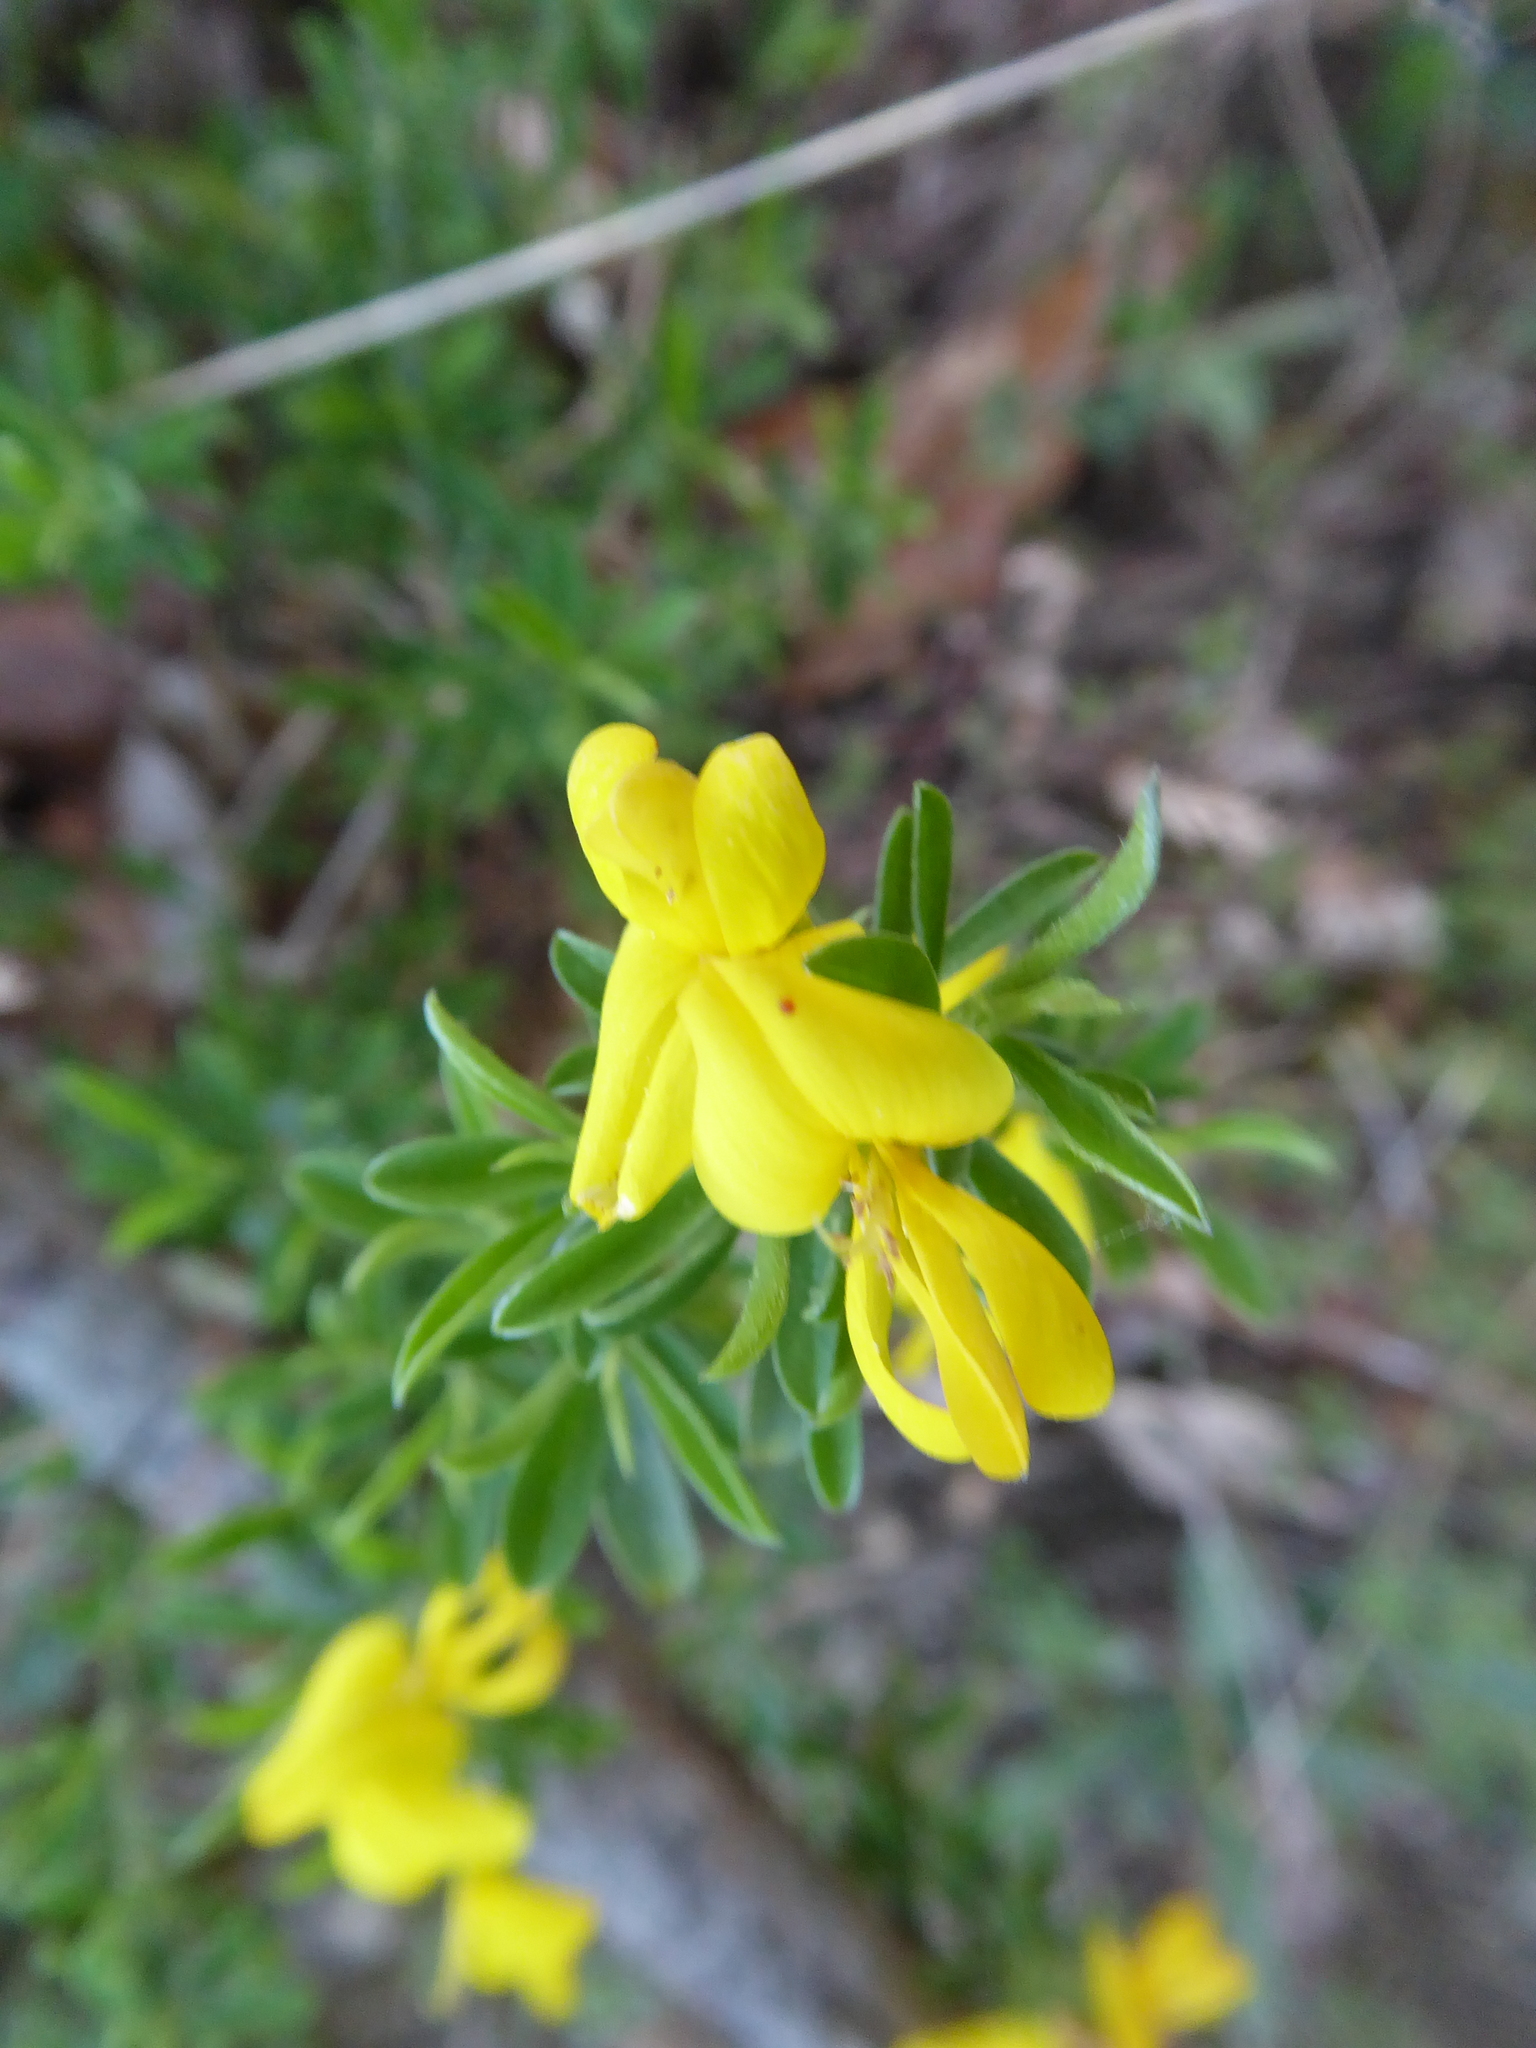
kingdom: Plantae
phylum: Tracheophyta
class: Magnoliopsida
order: Fabales
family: Fabaceae
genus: Genista
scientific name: Genista pilosa
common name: Hairy greenweed
